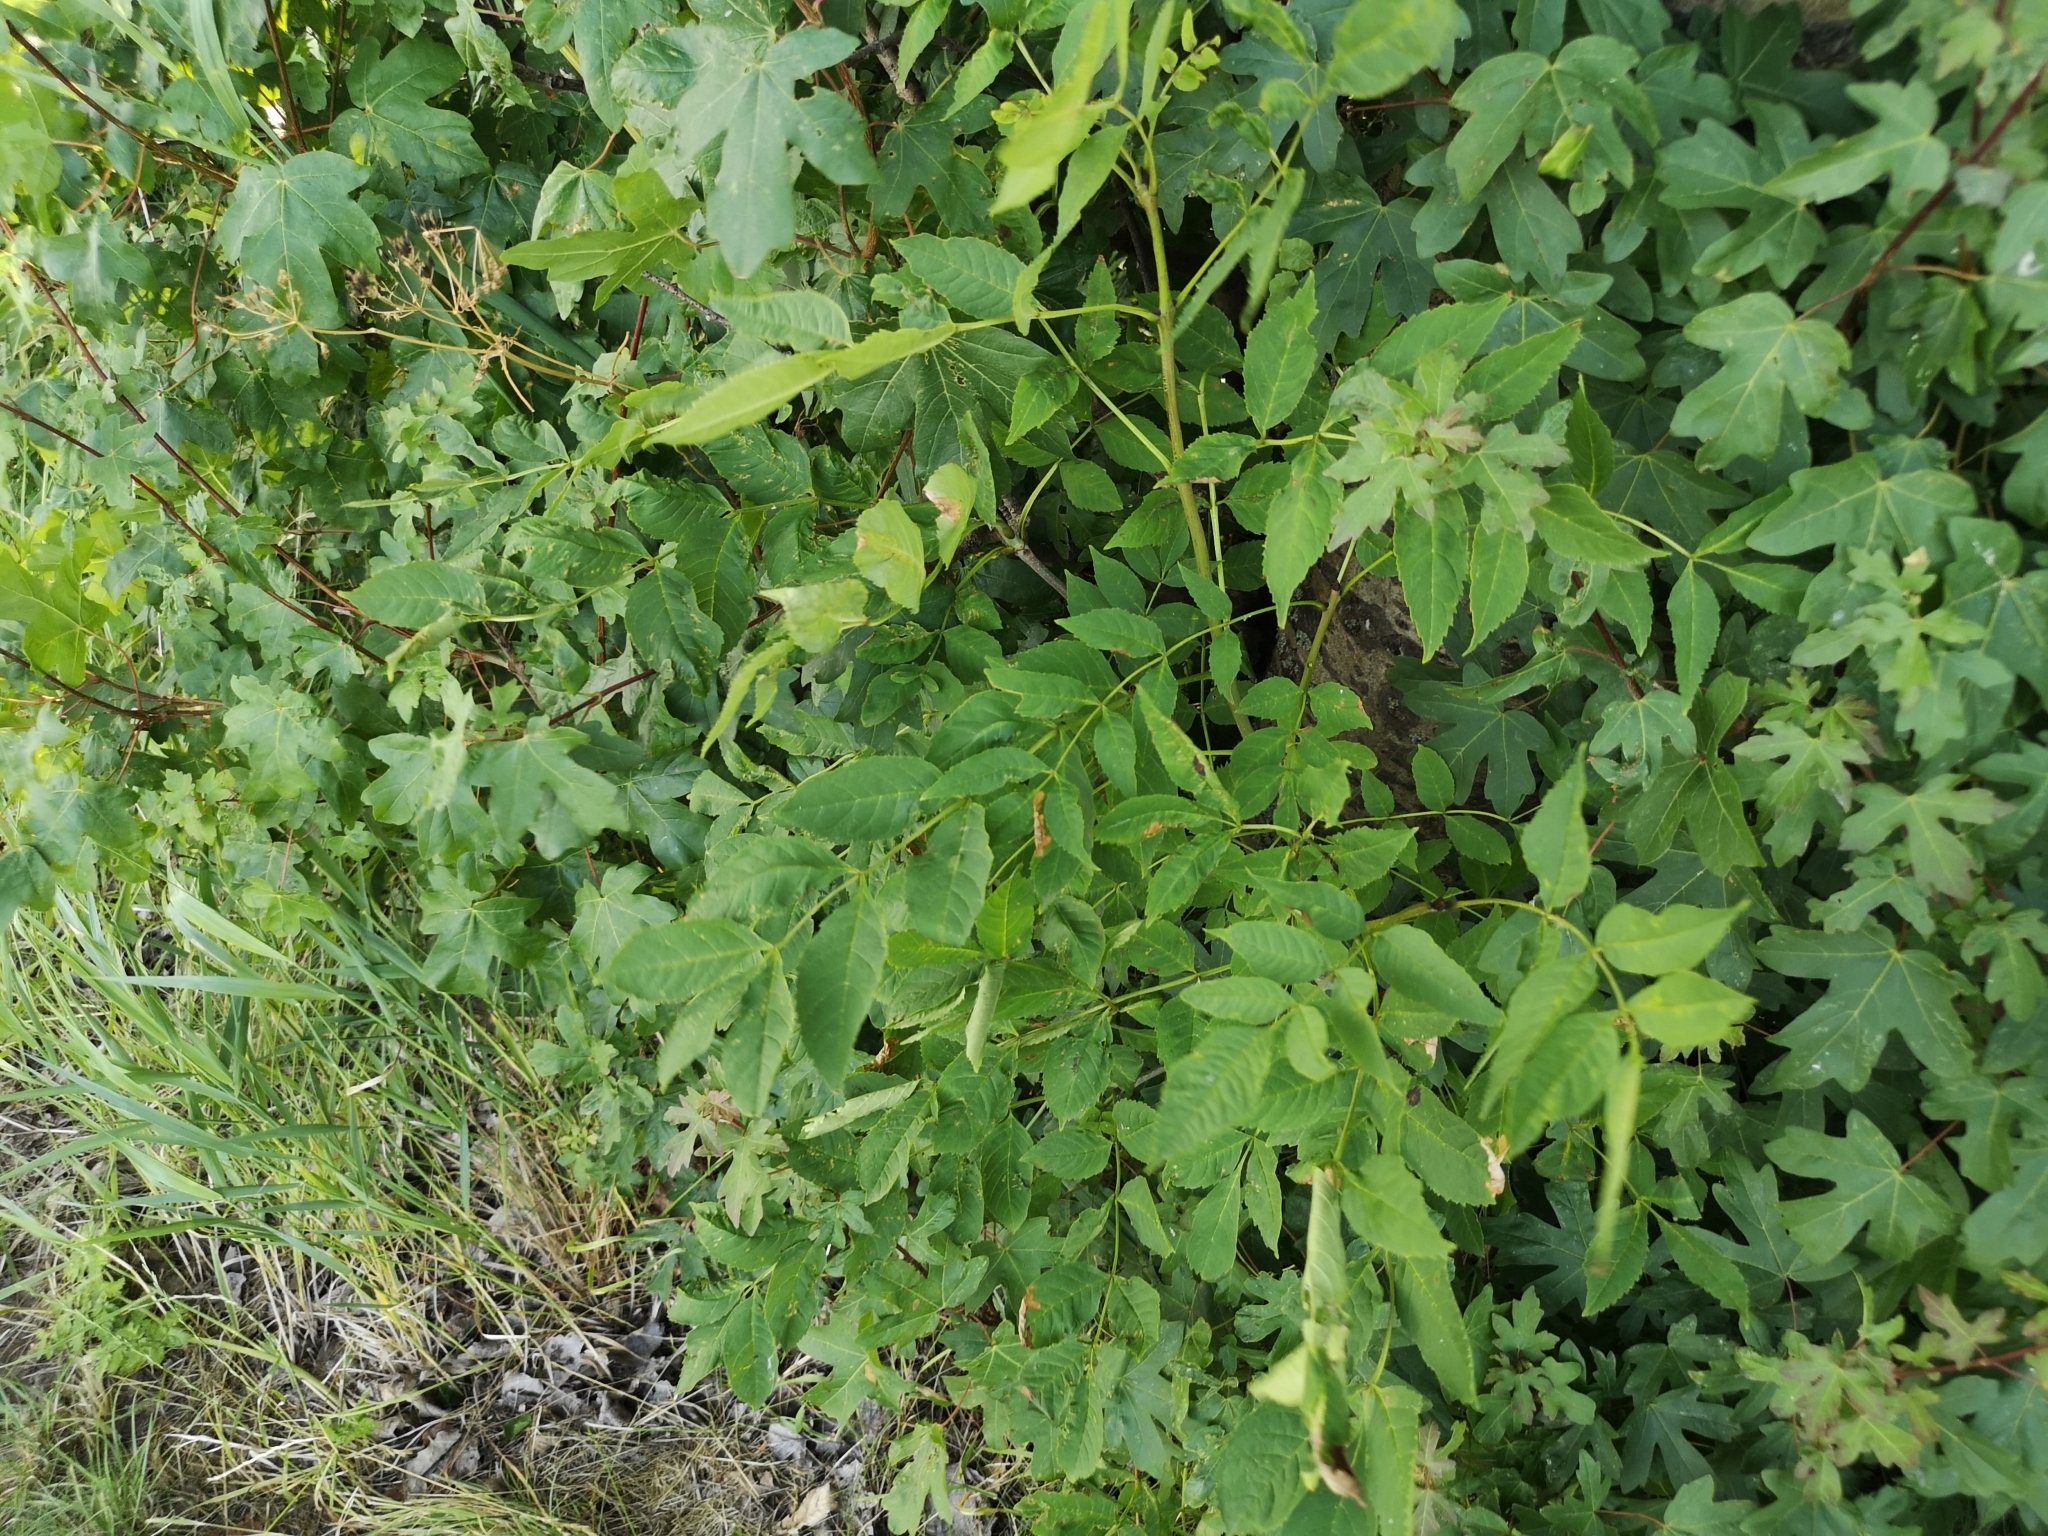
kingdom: Plantae
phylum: Tracheophyta
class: Magnoliopsida
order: Lamiales
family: Oleaceae
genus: Fraxinus
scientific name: Fraxinus excelsior
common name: European ash
